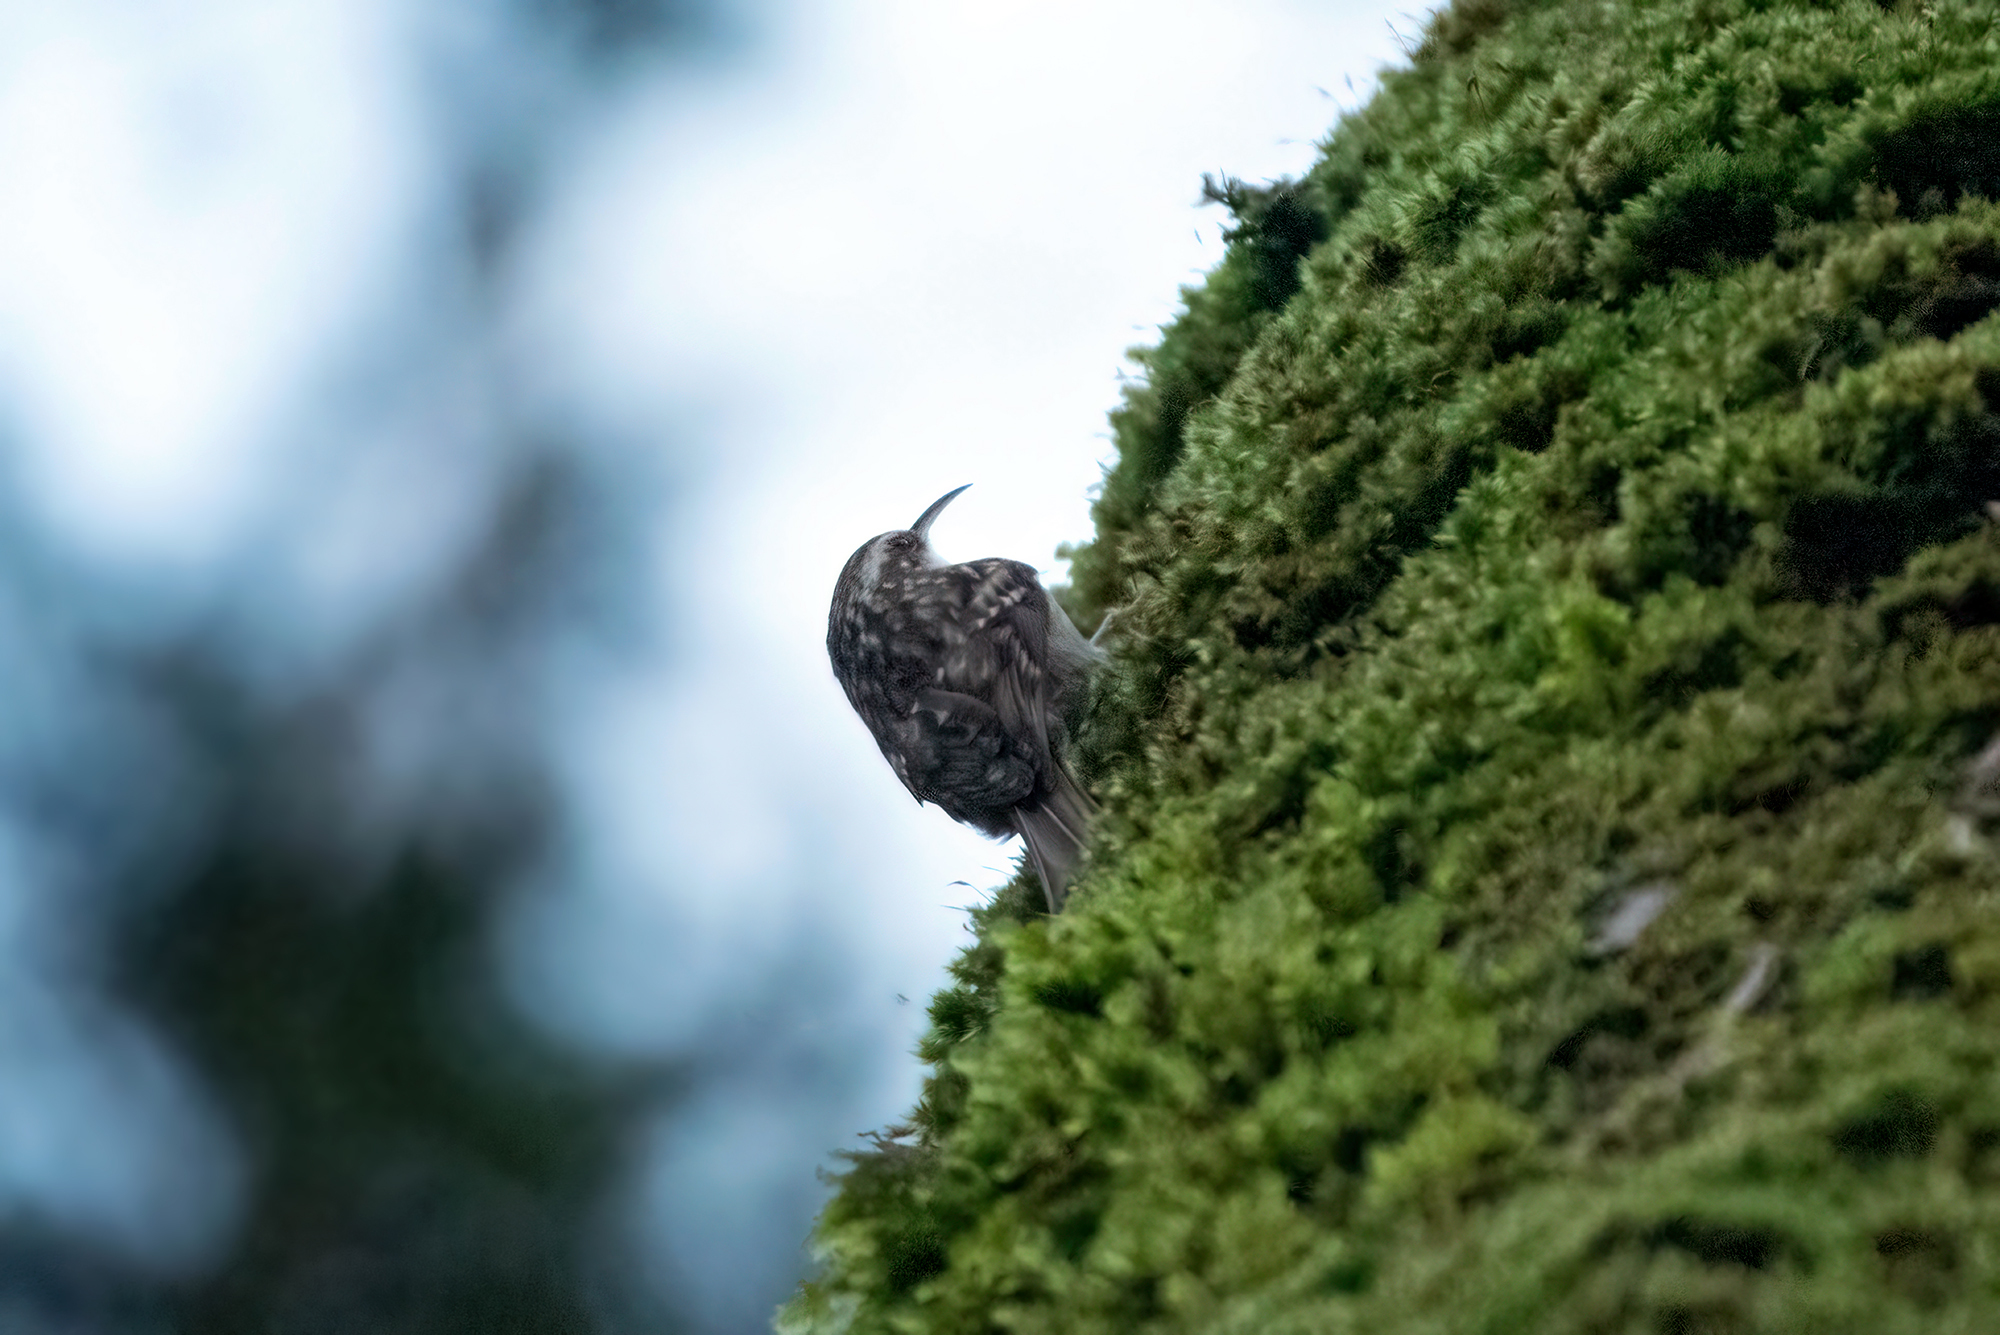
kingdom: Animalia
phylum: Chordata
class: Aves
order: Passeriformes
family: Certhiidae
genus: Certhia
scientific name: Certhia brachydactyla
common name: Short-toed treecreeper
